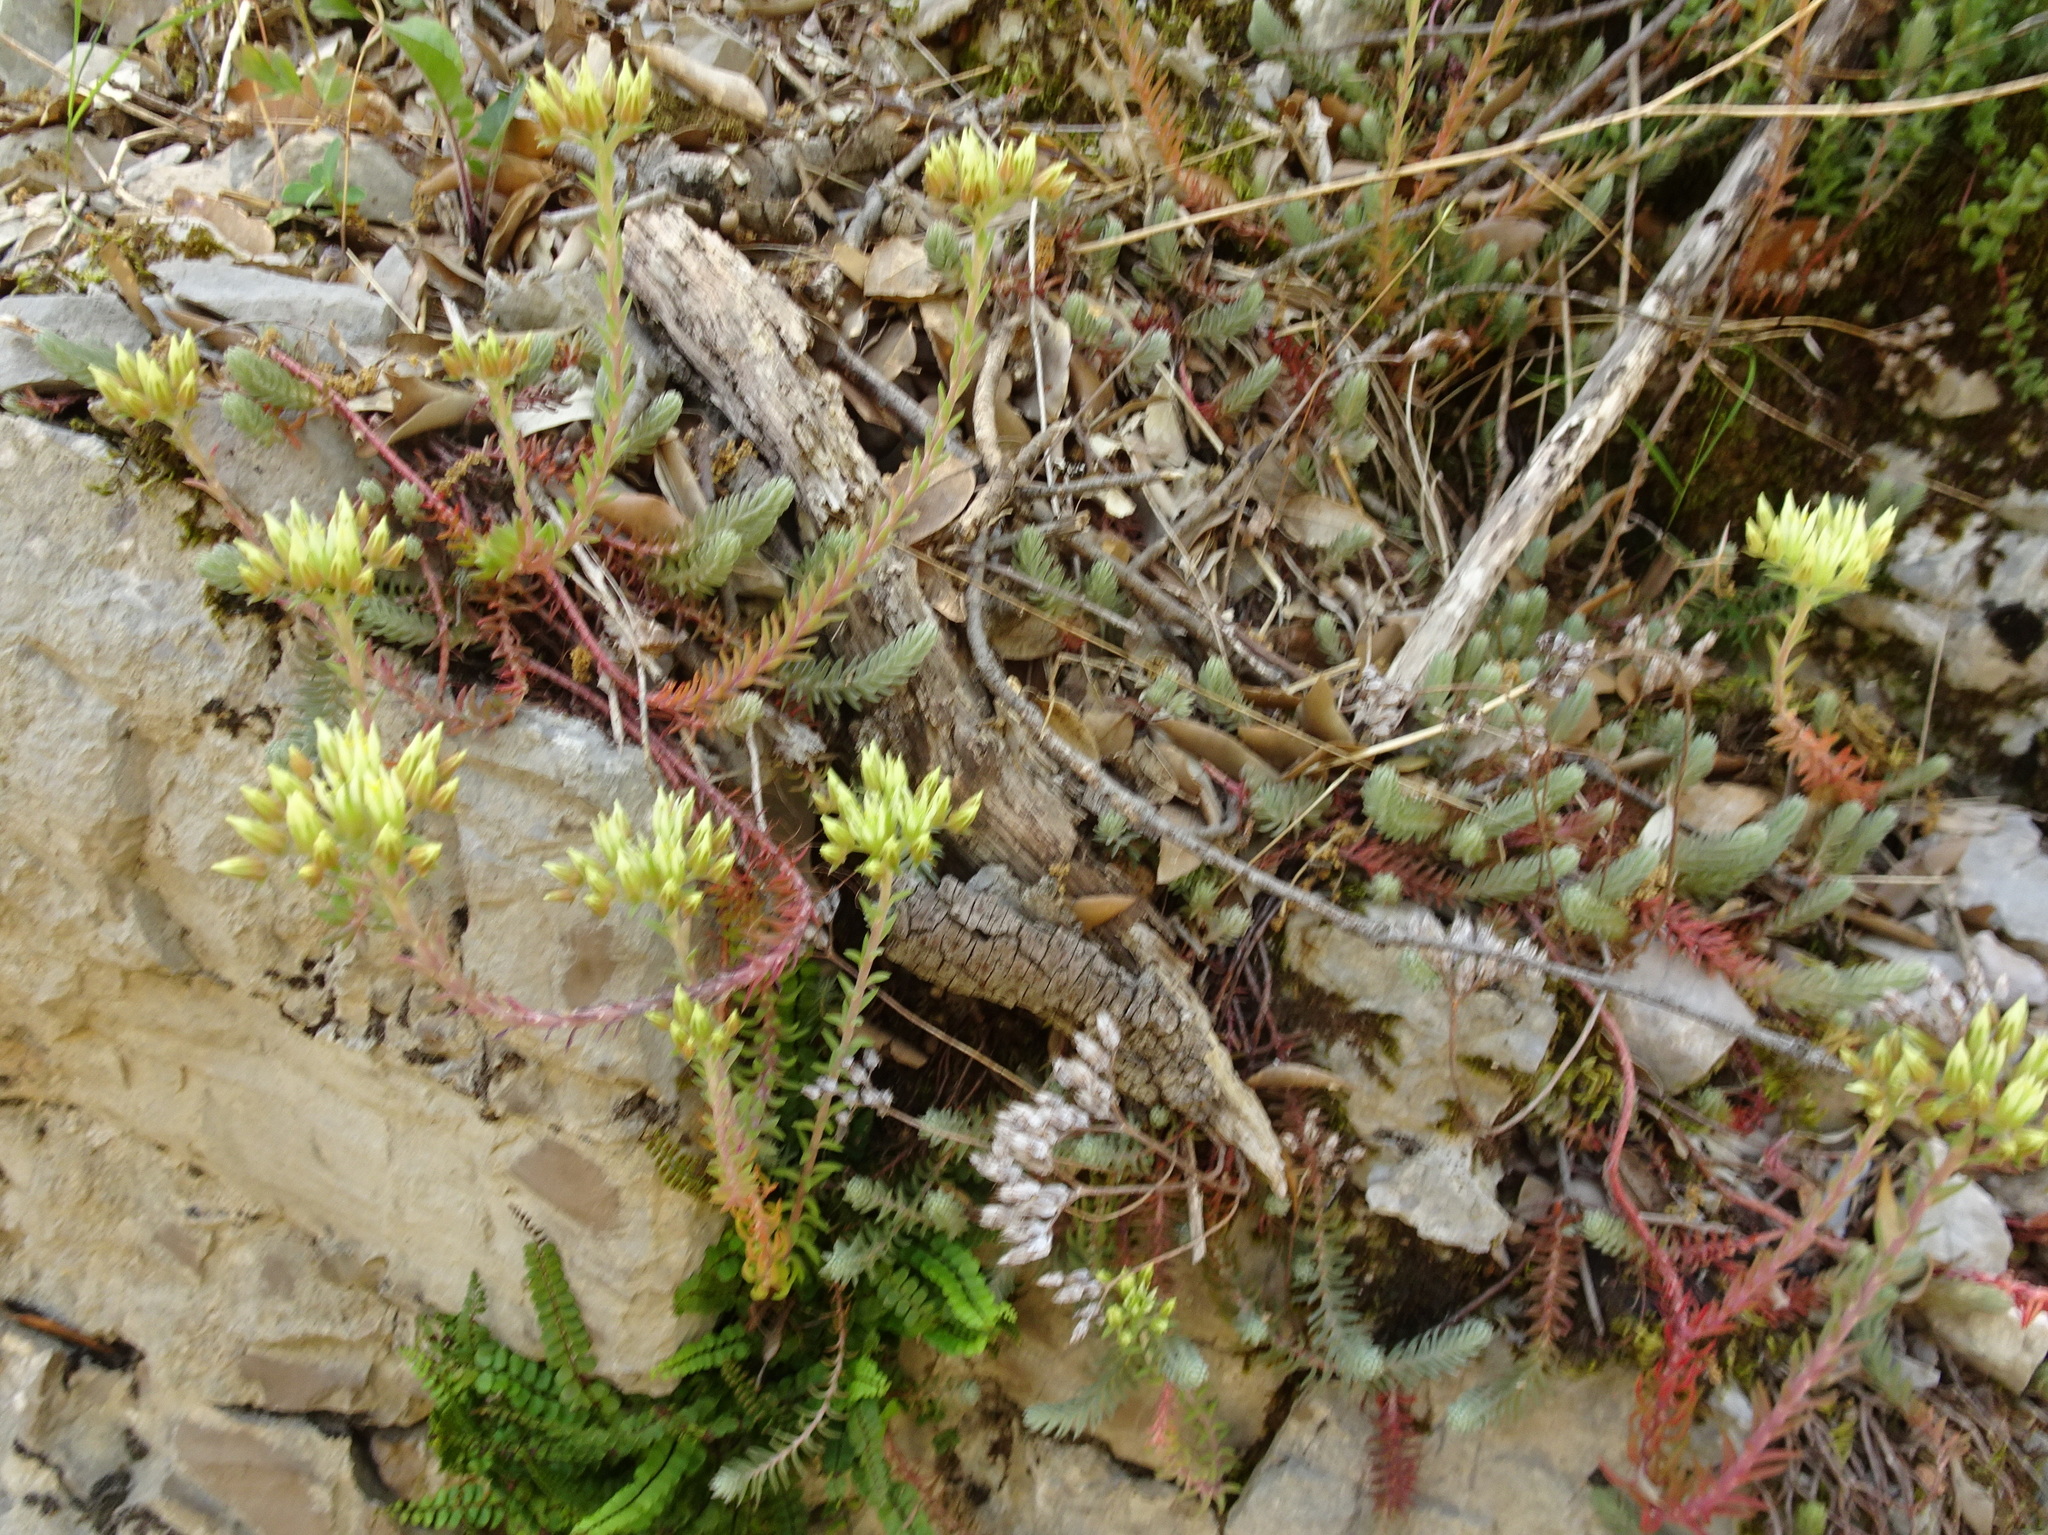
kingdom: Plantae
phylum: Tracheophyta
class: Magnoliopsida
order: Saxifragales
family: Crassulaceae
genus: Petrosedum
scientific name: Petrosedum ochroleucum
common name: European stonecrop
